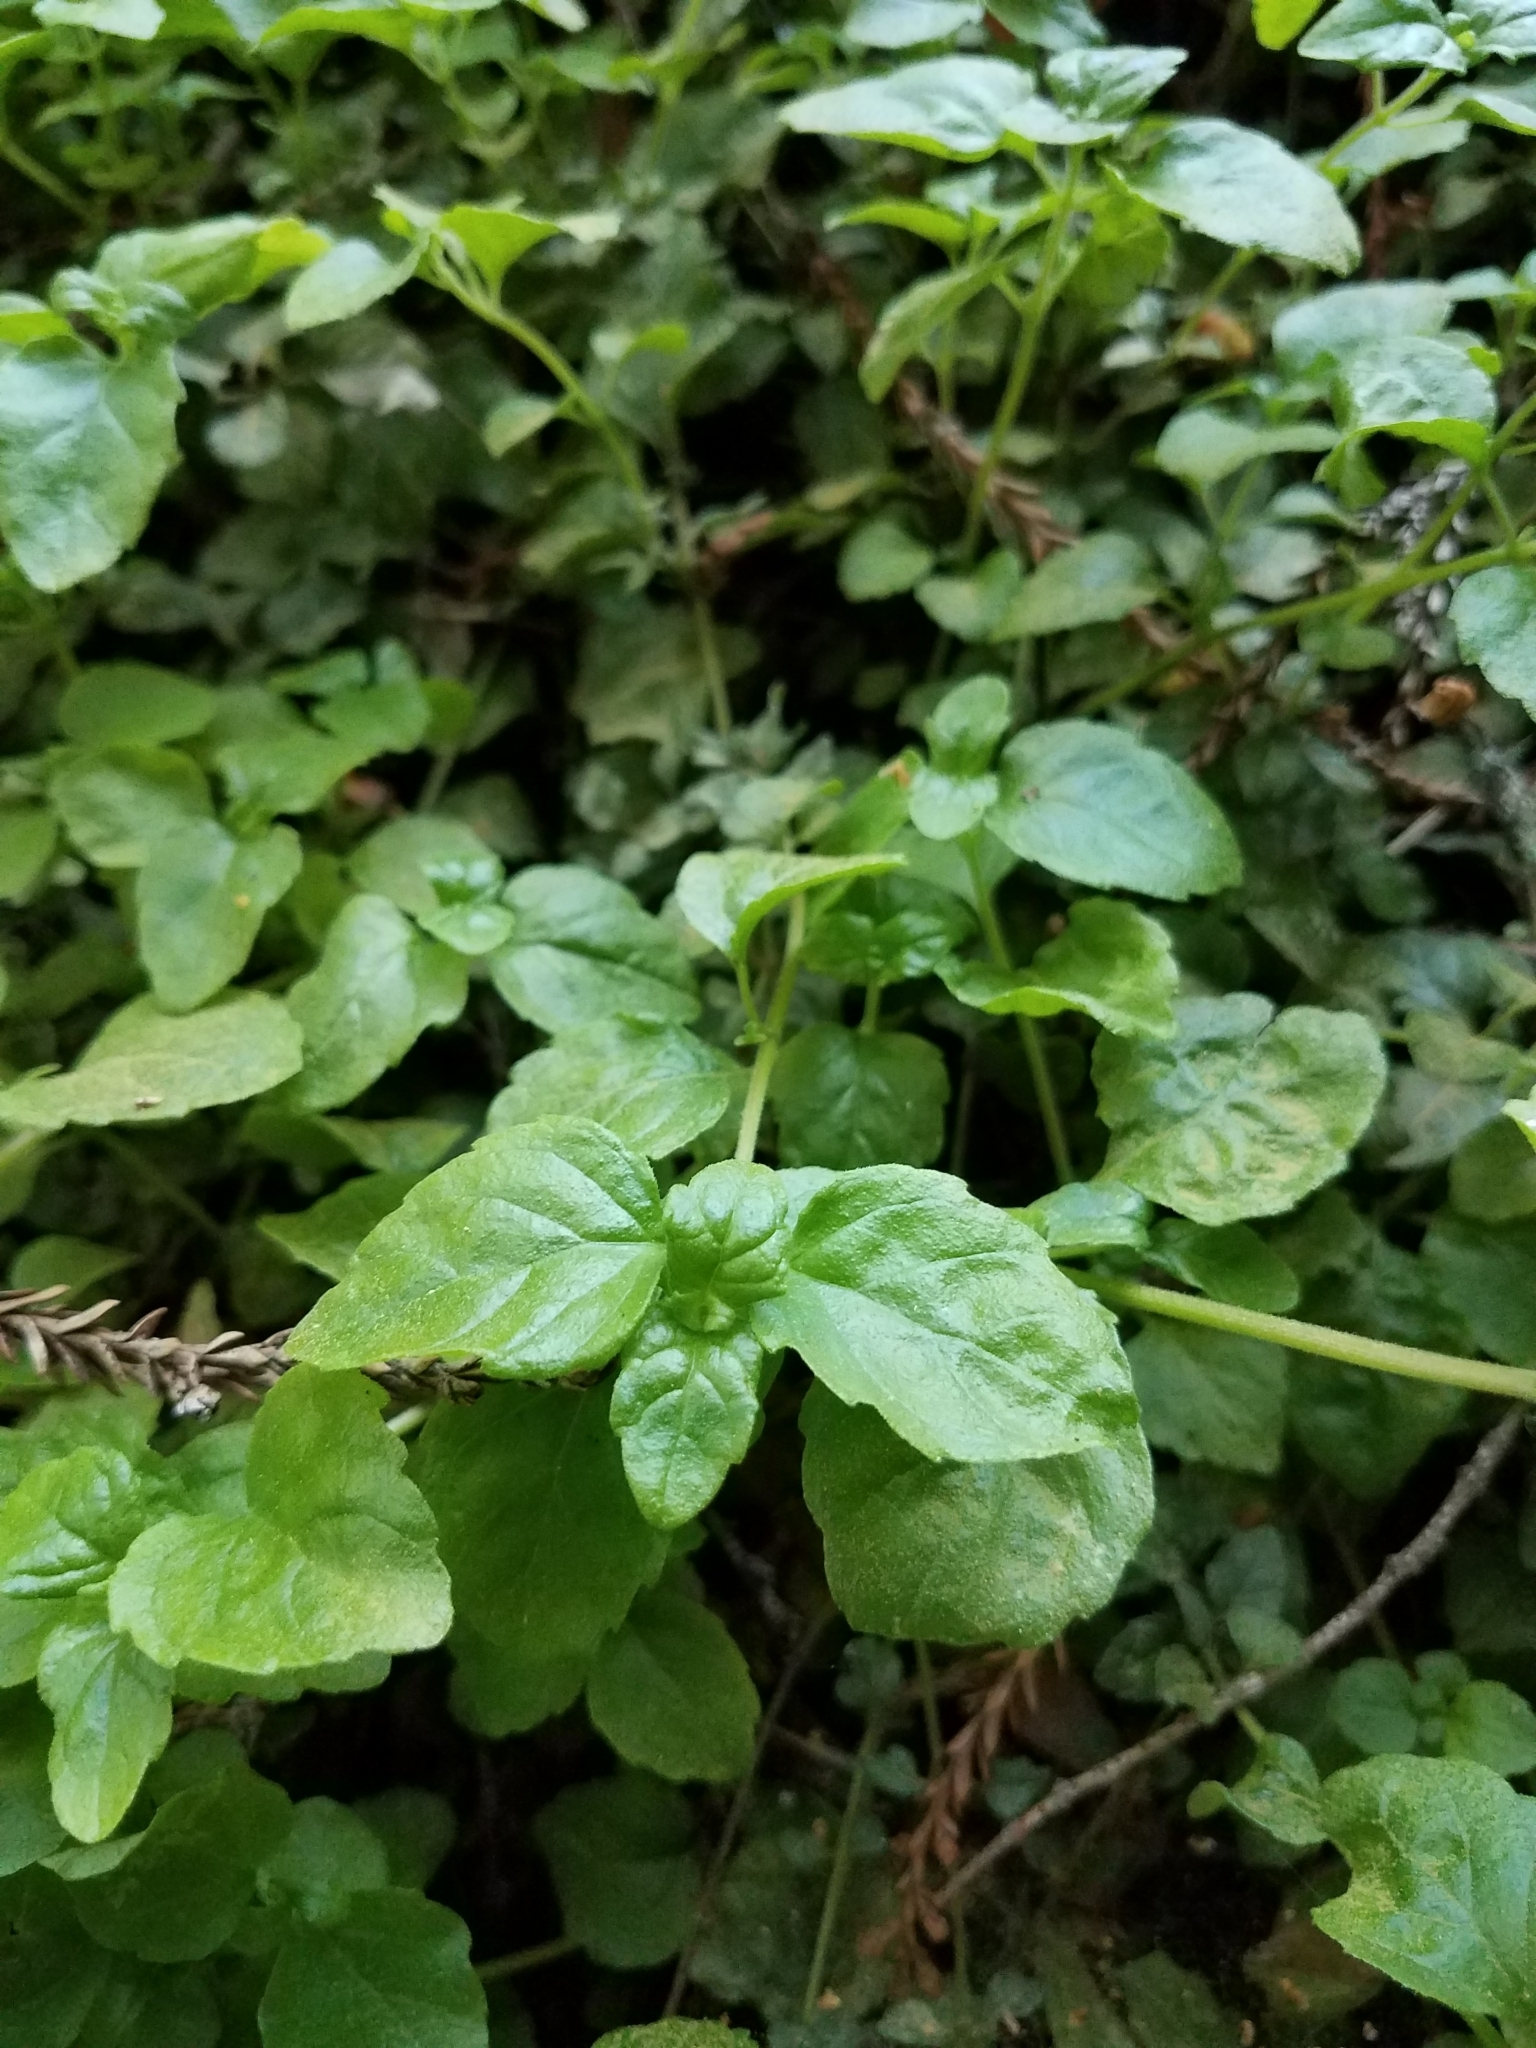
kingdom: Plantae
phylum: Tracheophyta
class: Magnoliopsida
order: Lamiales
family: Lamiaceae
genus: Micromeria
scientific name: Micromeria douglasii
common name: Yerba buena
